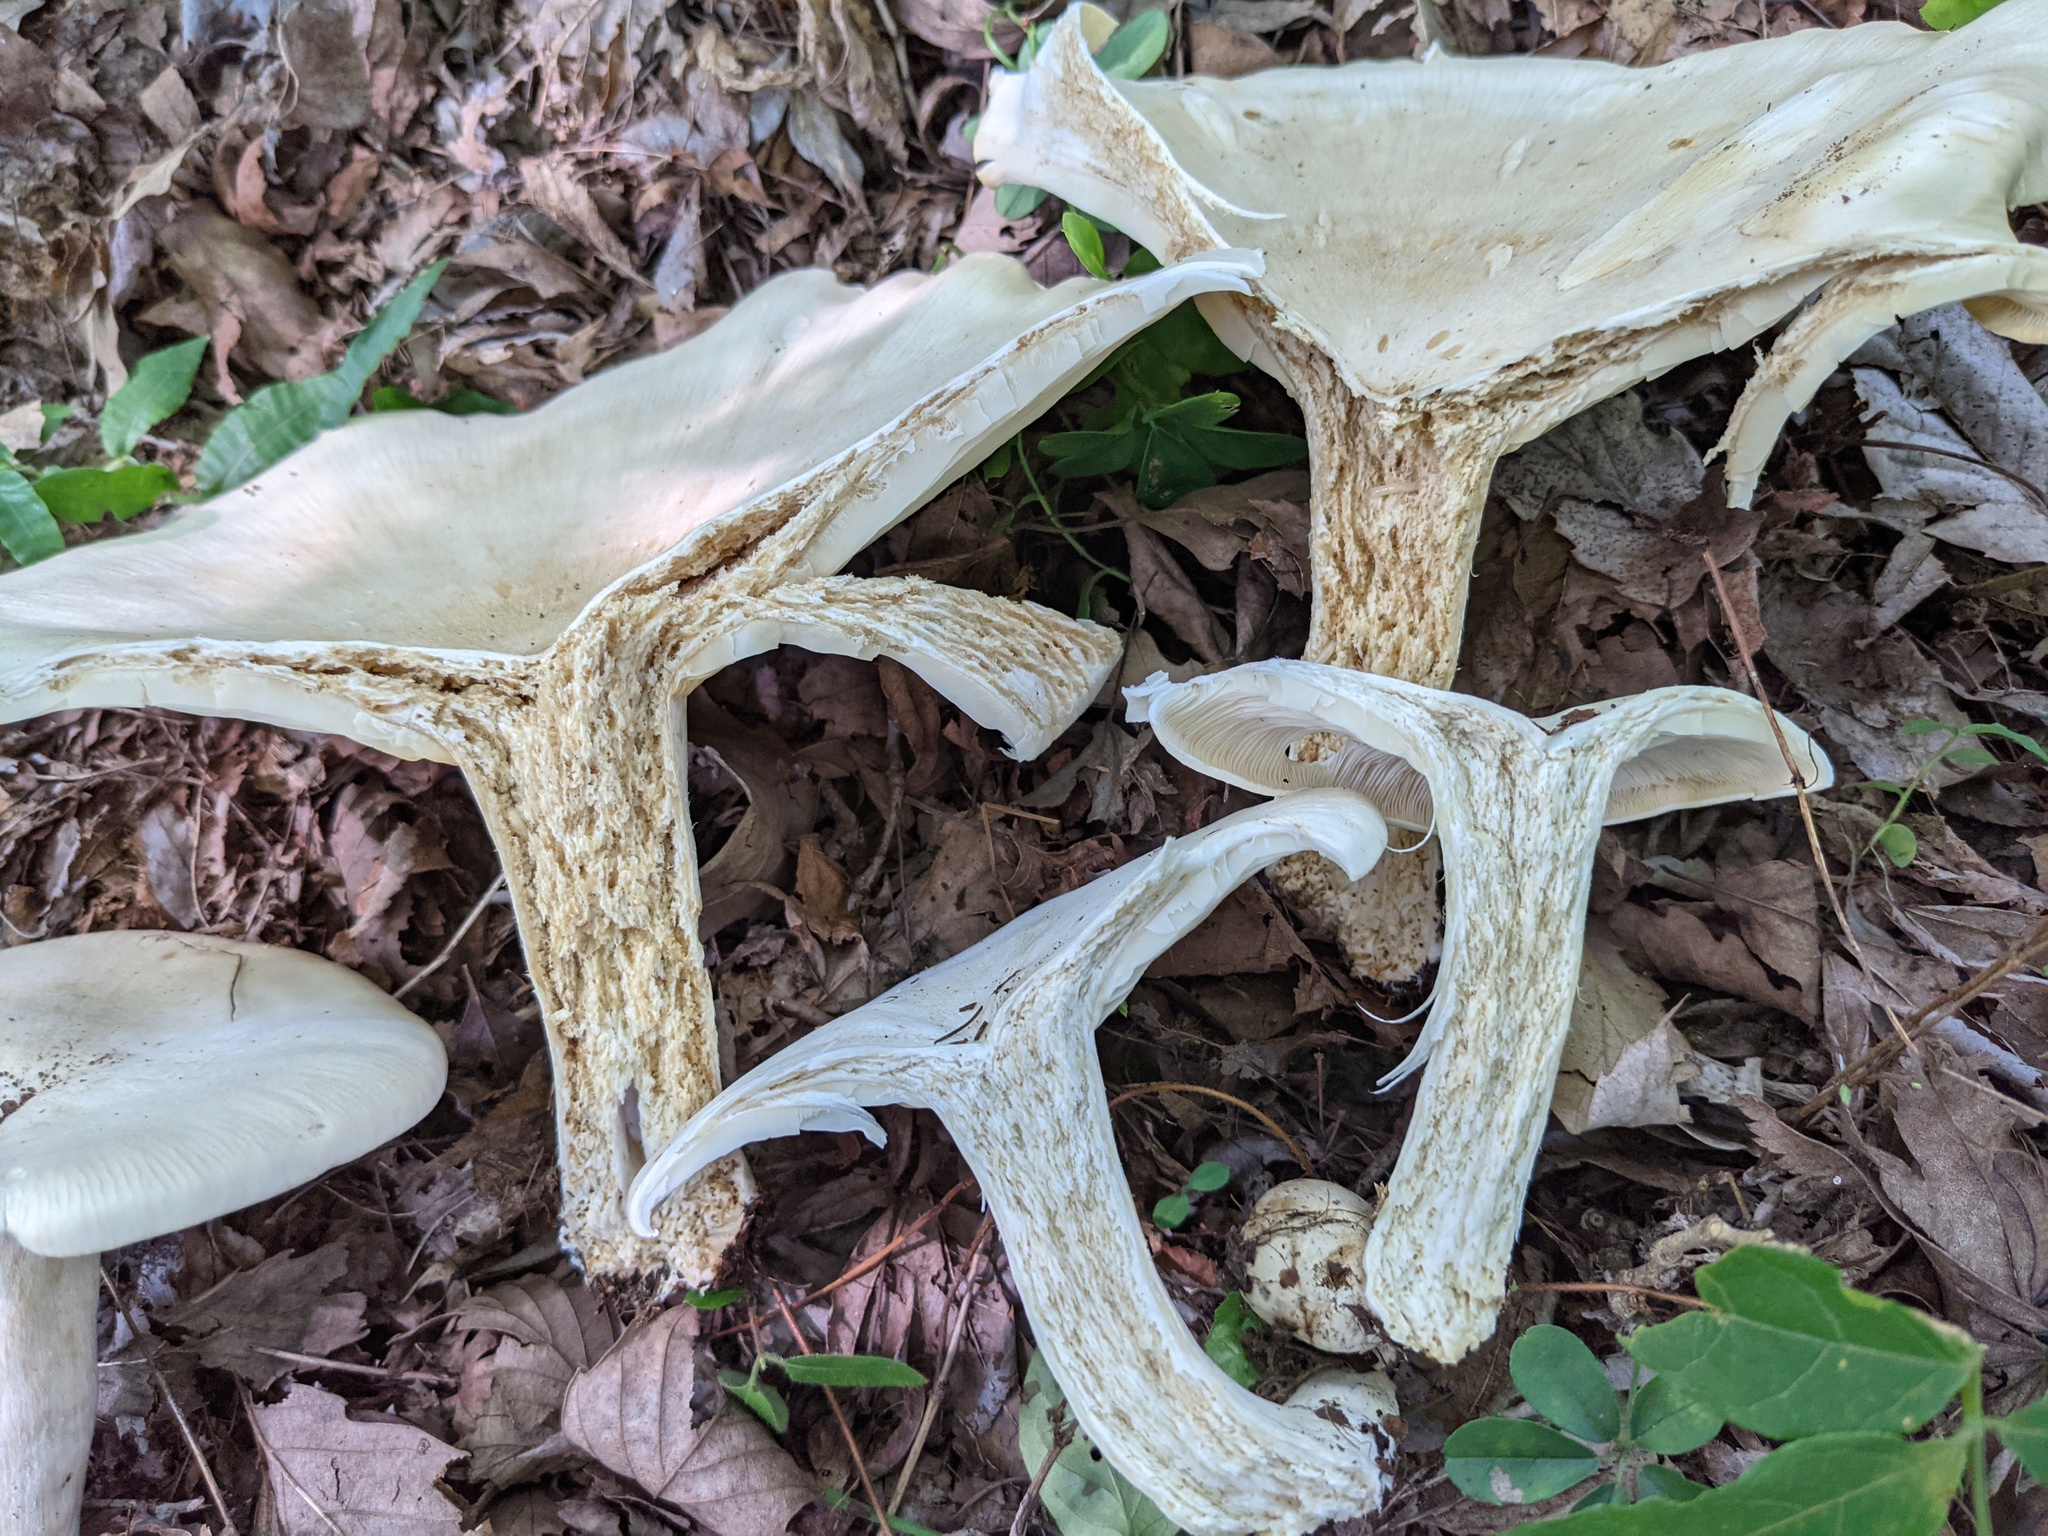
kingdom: Fungi
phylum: Basidiomycota
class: Agaricomycetes
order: Agaricales
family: Tricholomataceae
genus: Aspropaxillus
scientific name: Aspropaxillus giganteus
